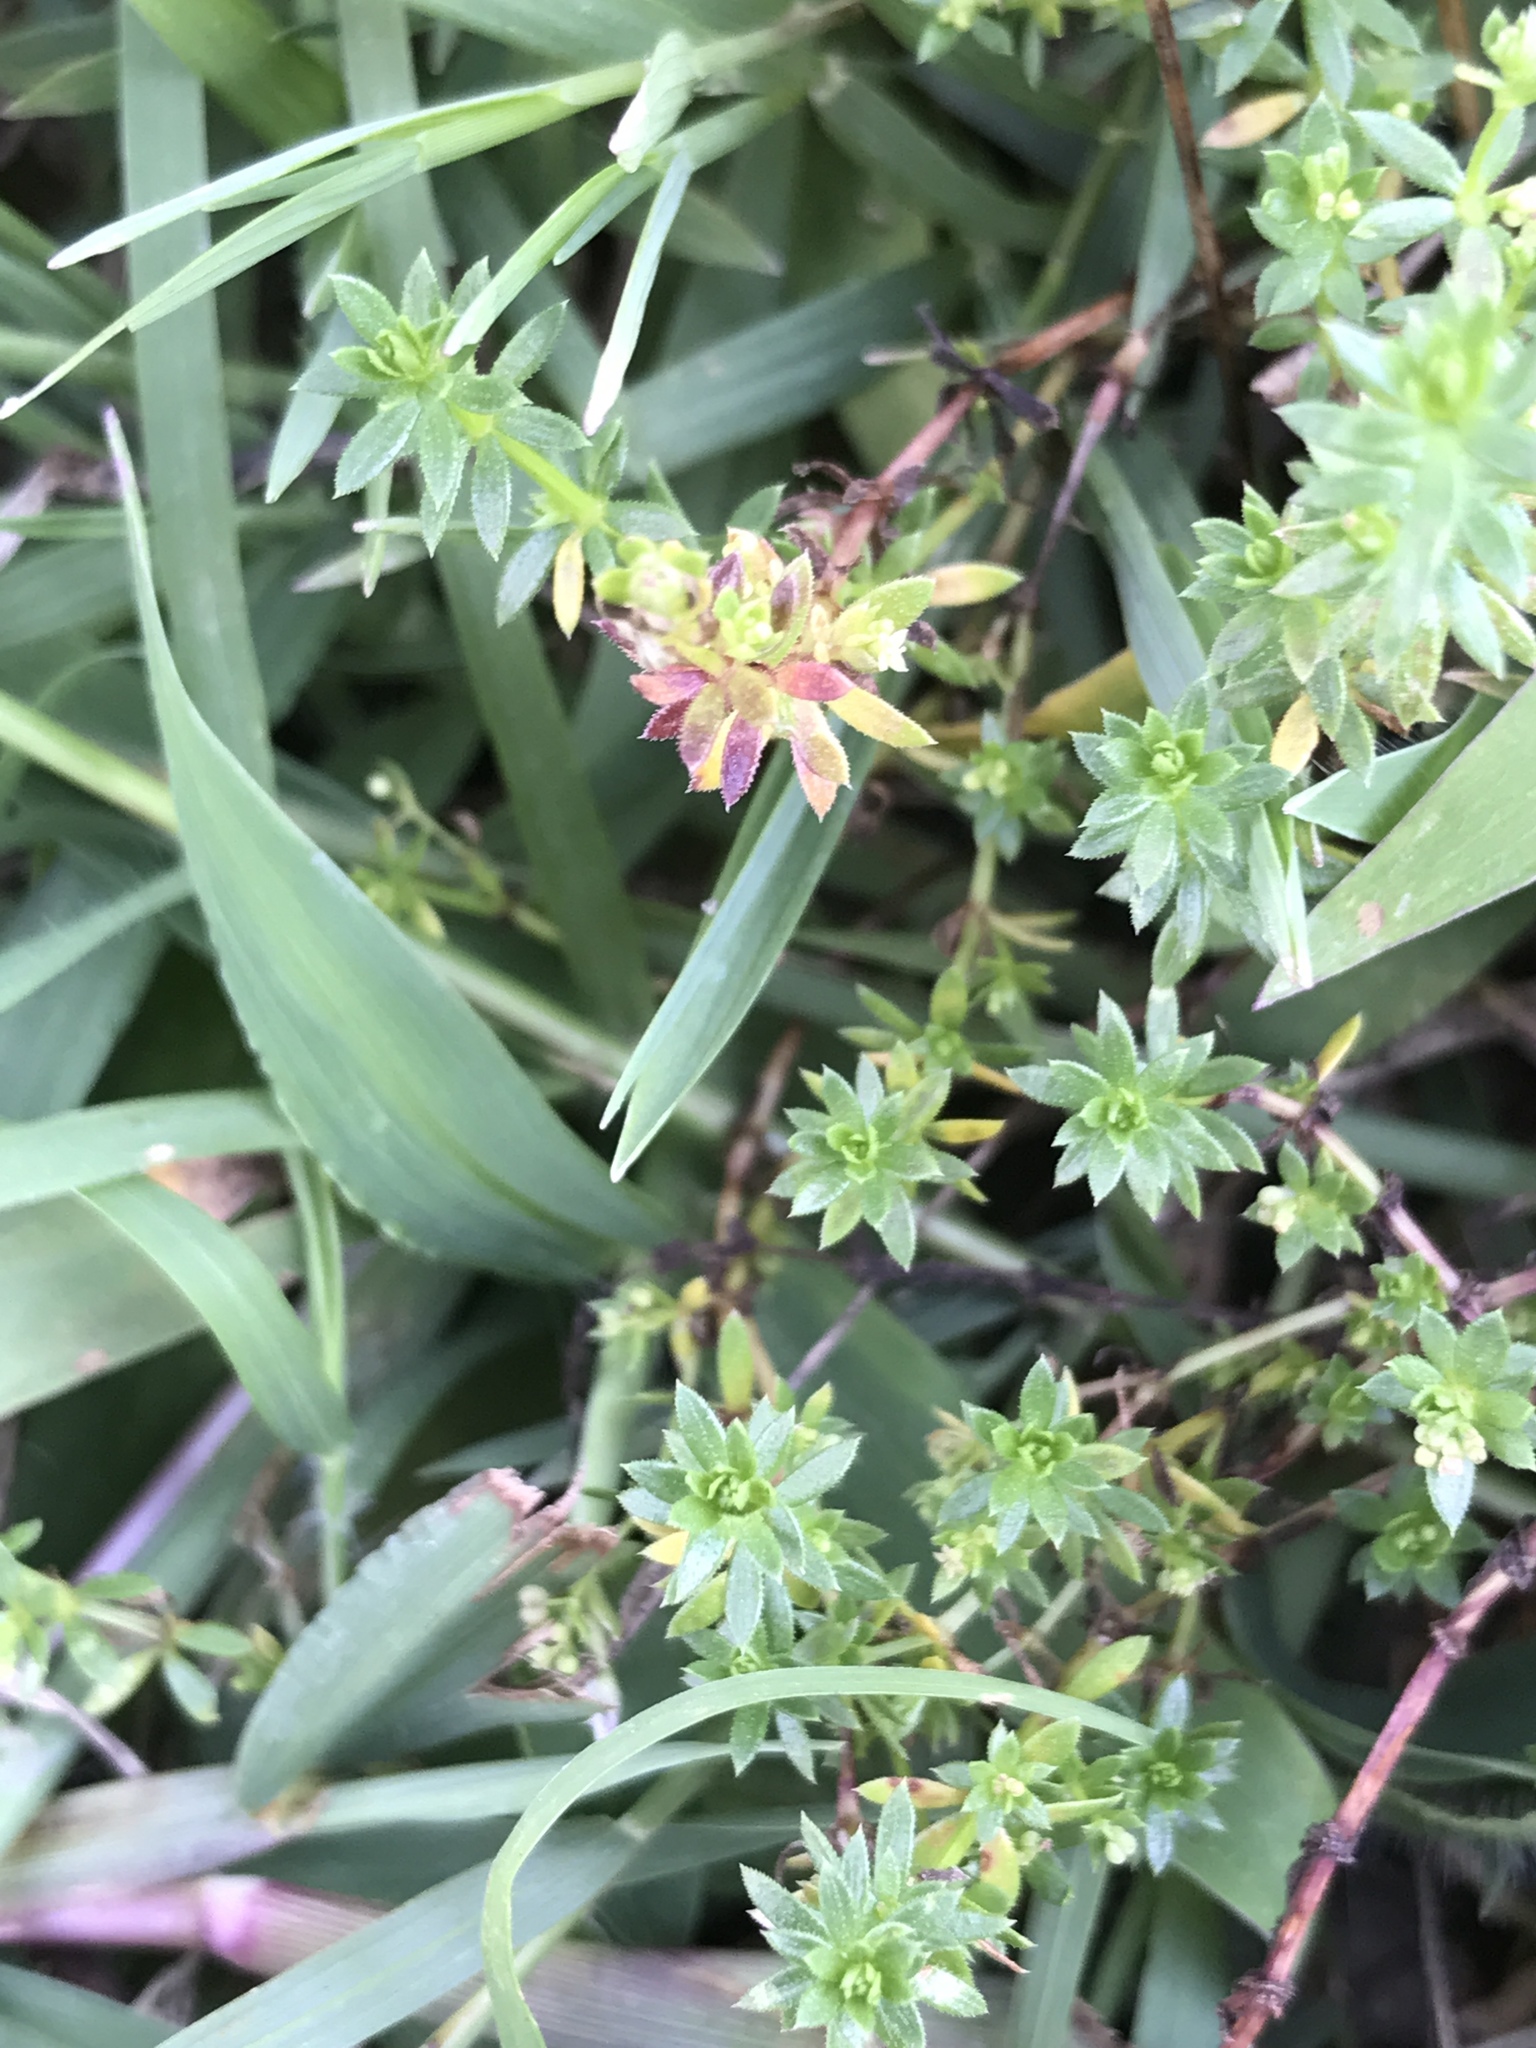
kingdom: Plantae
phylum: Tracheophyta
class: Magnoliopsida
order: Gentianales
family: Rubiaceae
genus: Sherardia
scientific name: Sherardia arvensis
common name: Field madder
